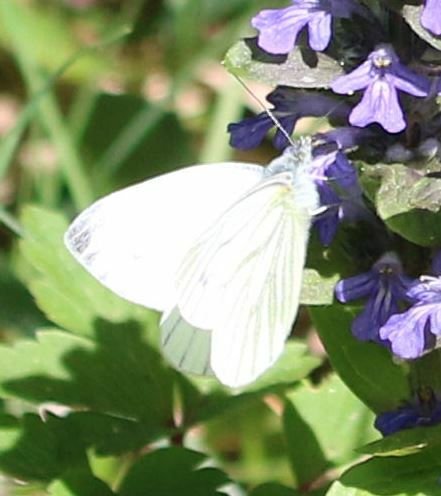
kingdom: Animalia
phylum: Arthropoda
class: Insecta
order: Lepidoptera
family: Pieridae
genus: Pieris
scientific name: Pieris napi
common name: Green-veined white
